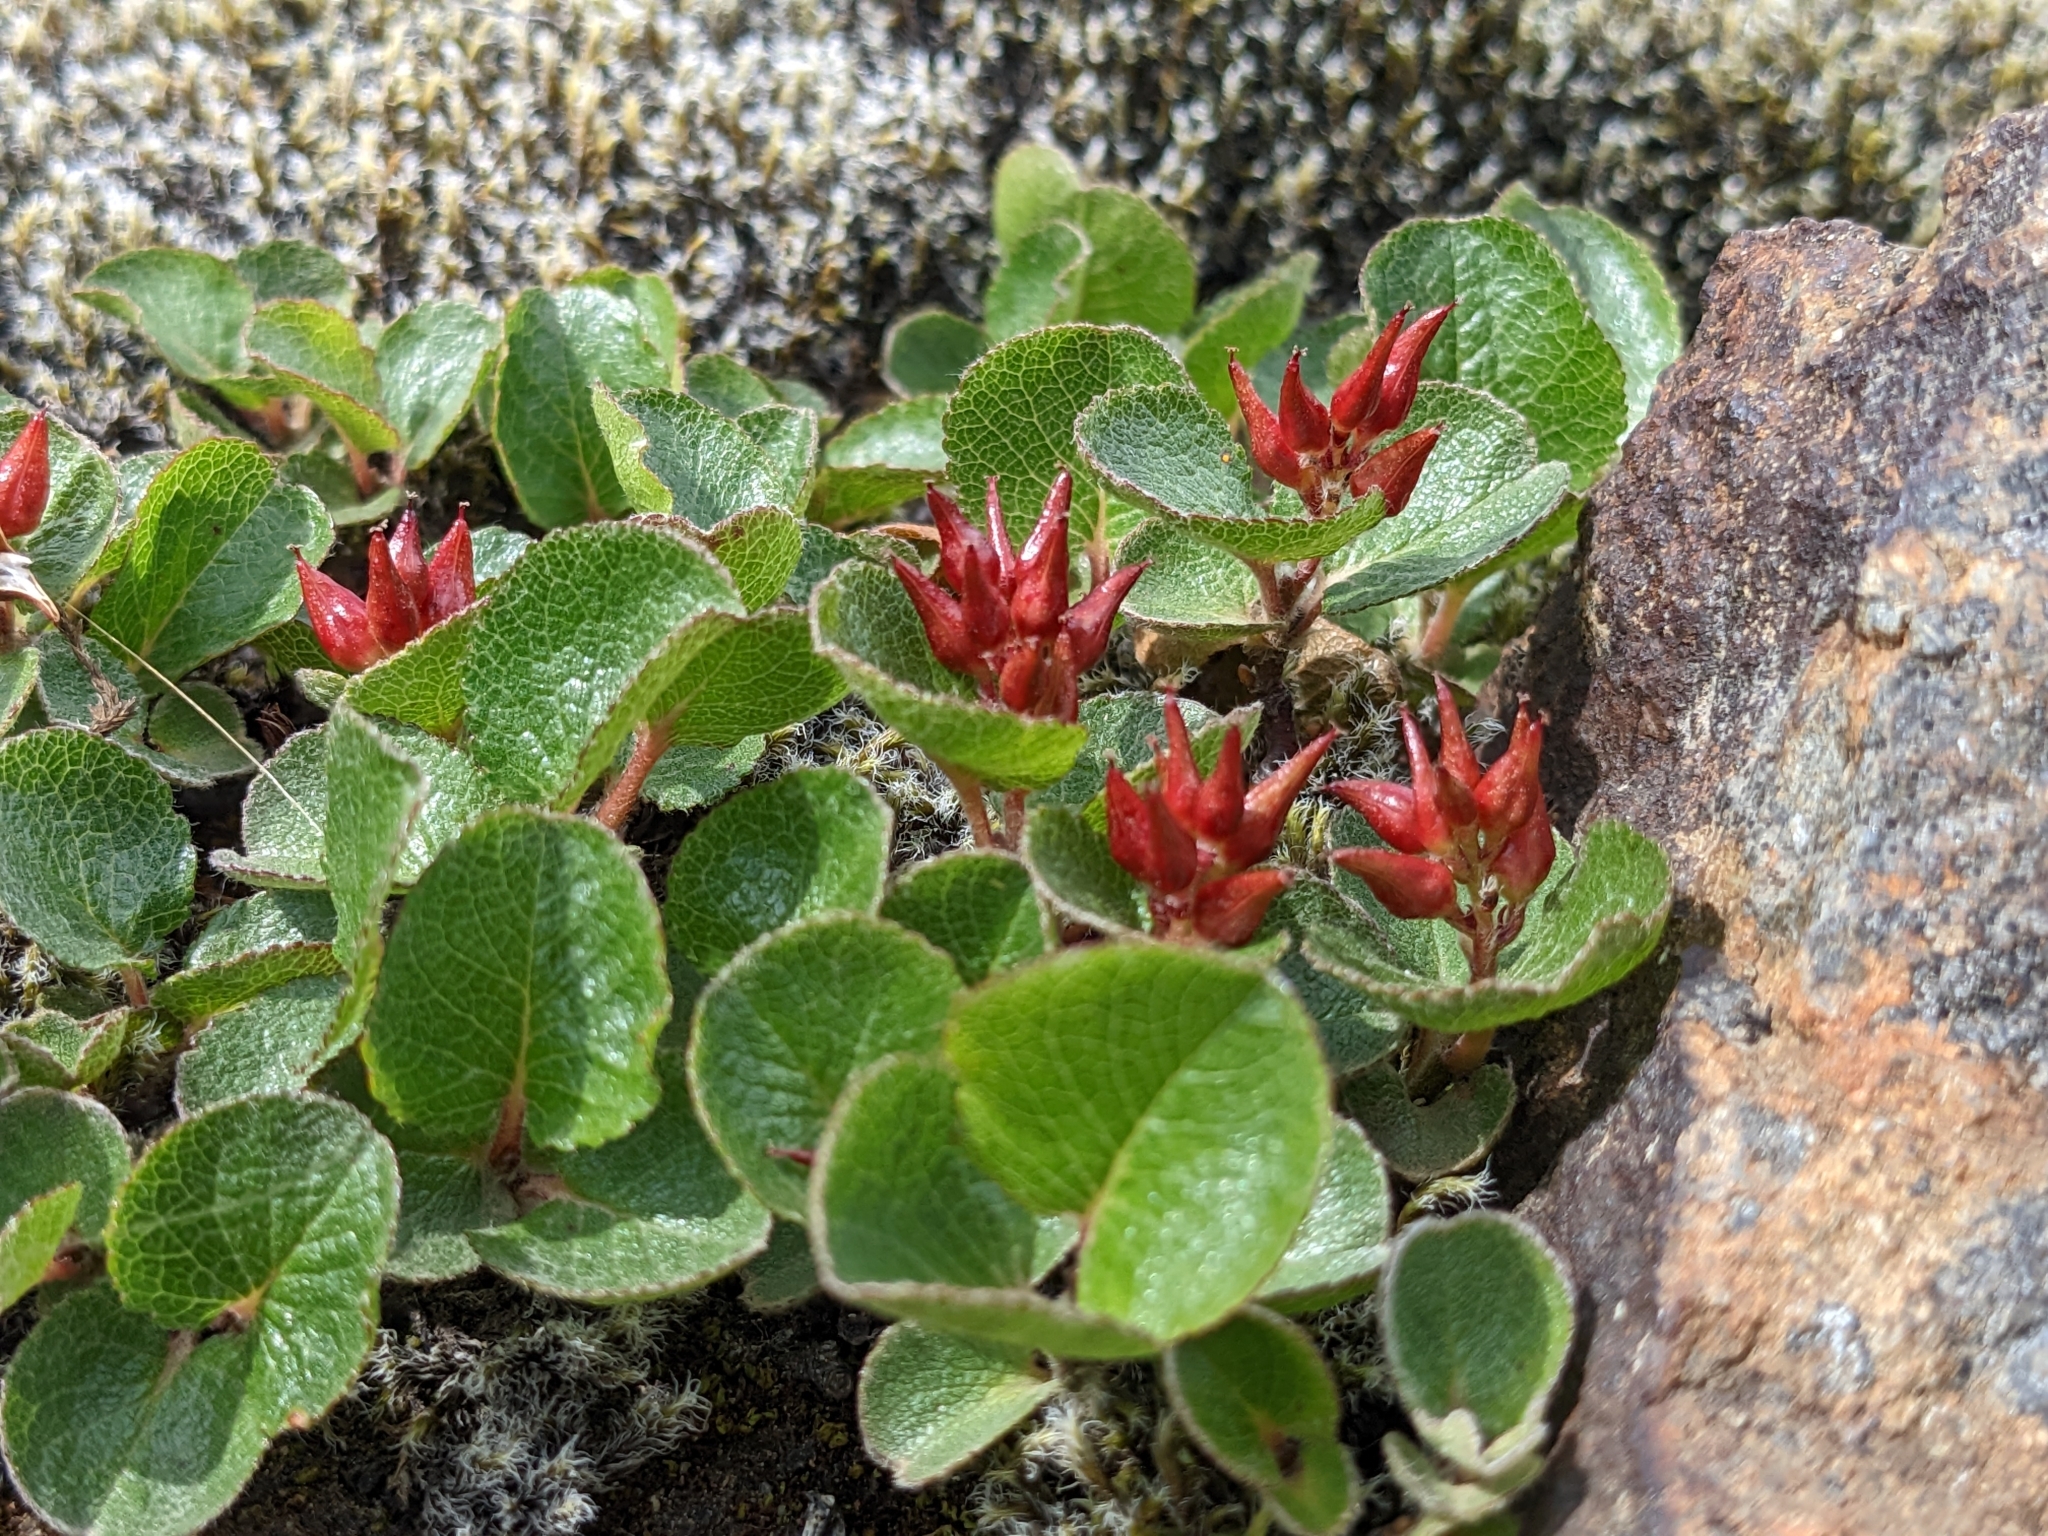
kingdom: Plantae
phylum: Tracheophyta
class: Magnoliopsida
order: Malpighiales
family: Salicaceae
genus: Salix
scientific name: Salix herbacea
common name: Dwarf willow
